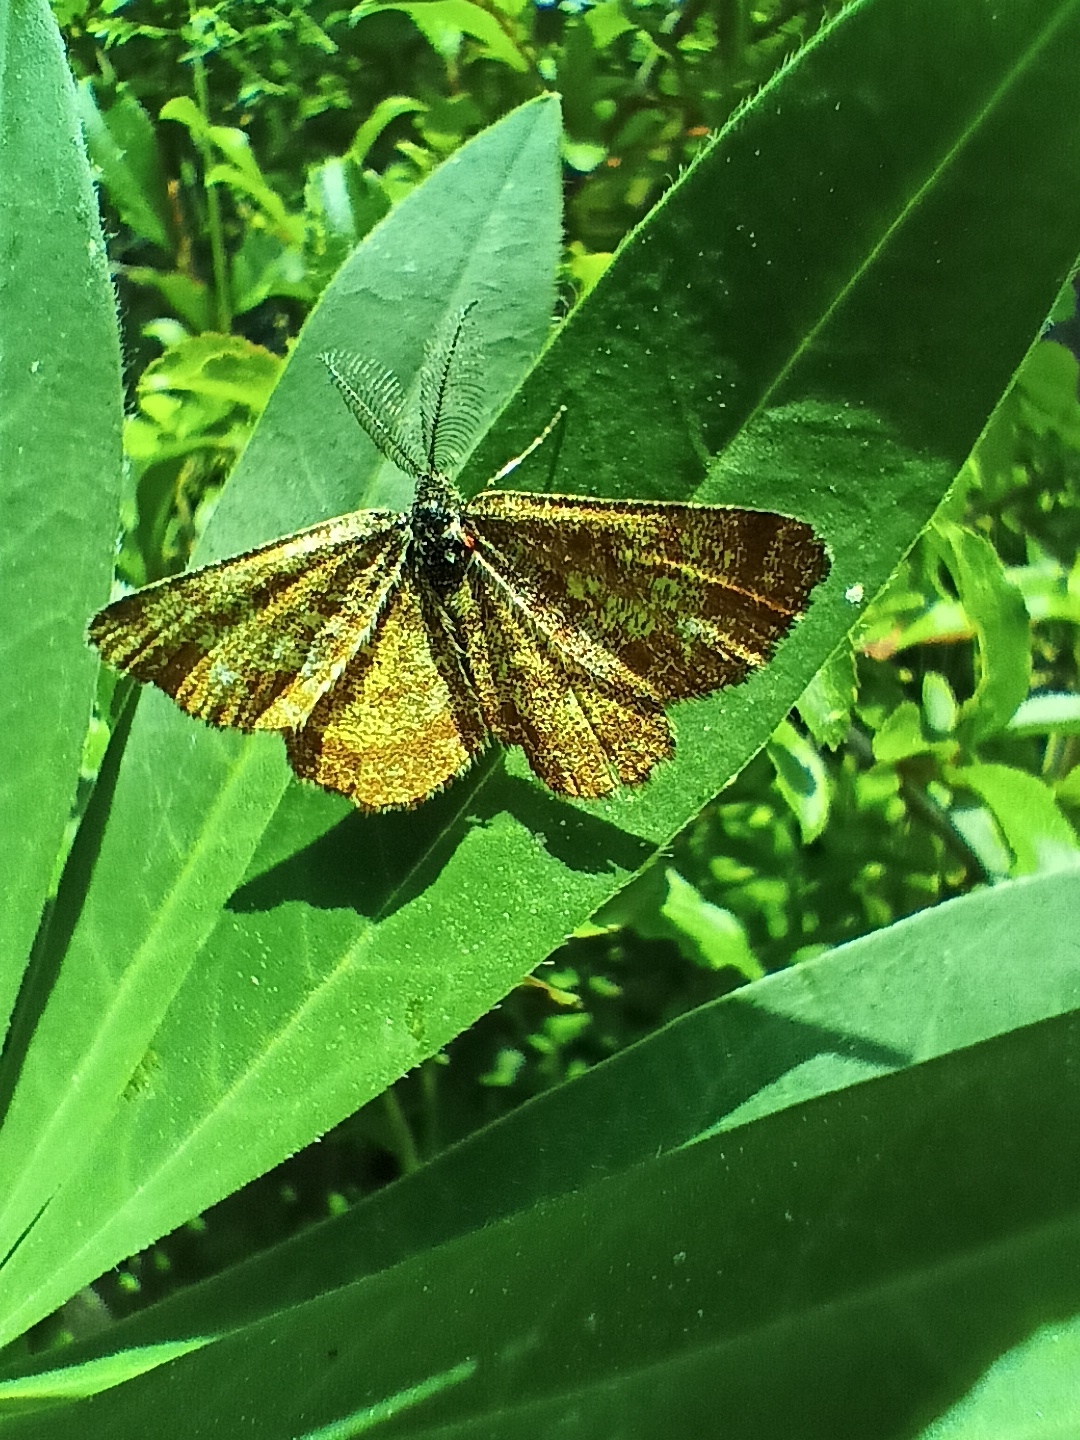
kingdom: Animalia
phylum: Arthropoda
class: Insecta
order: Lepidoptera
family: Geometridae
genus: Ematurga
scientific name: Ematurga atomaria
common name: Common heath
